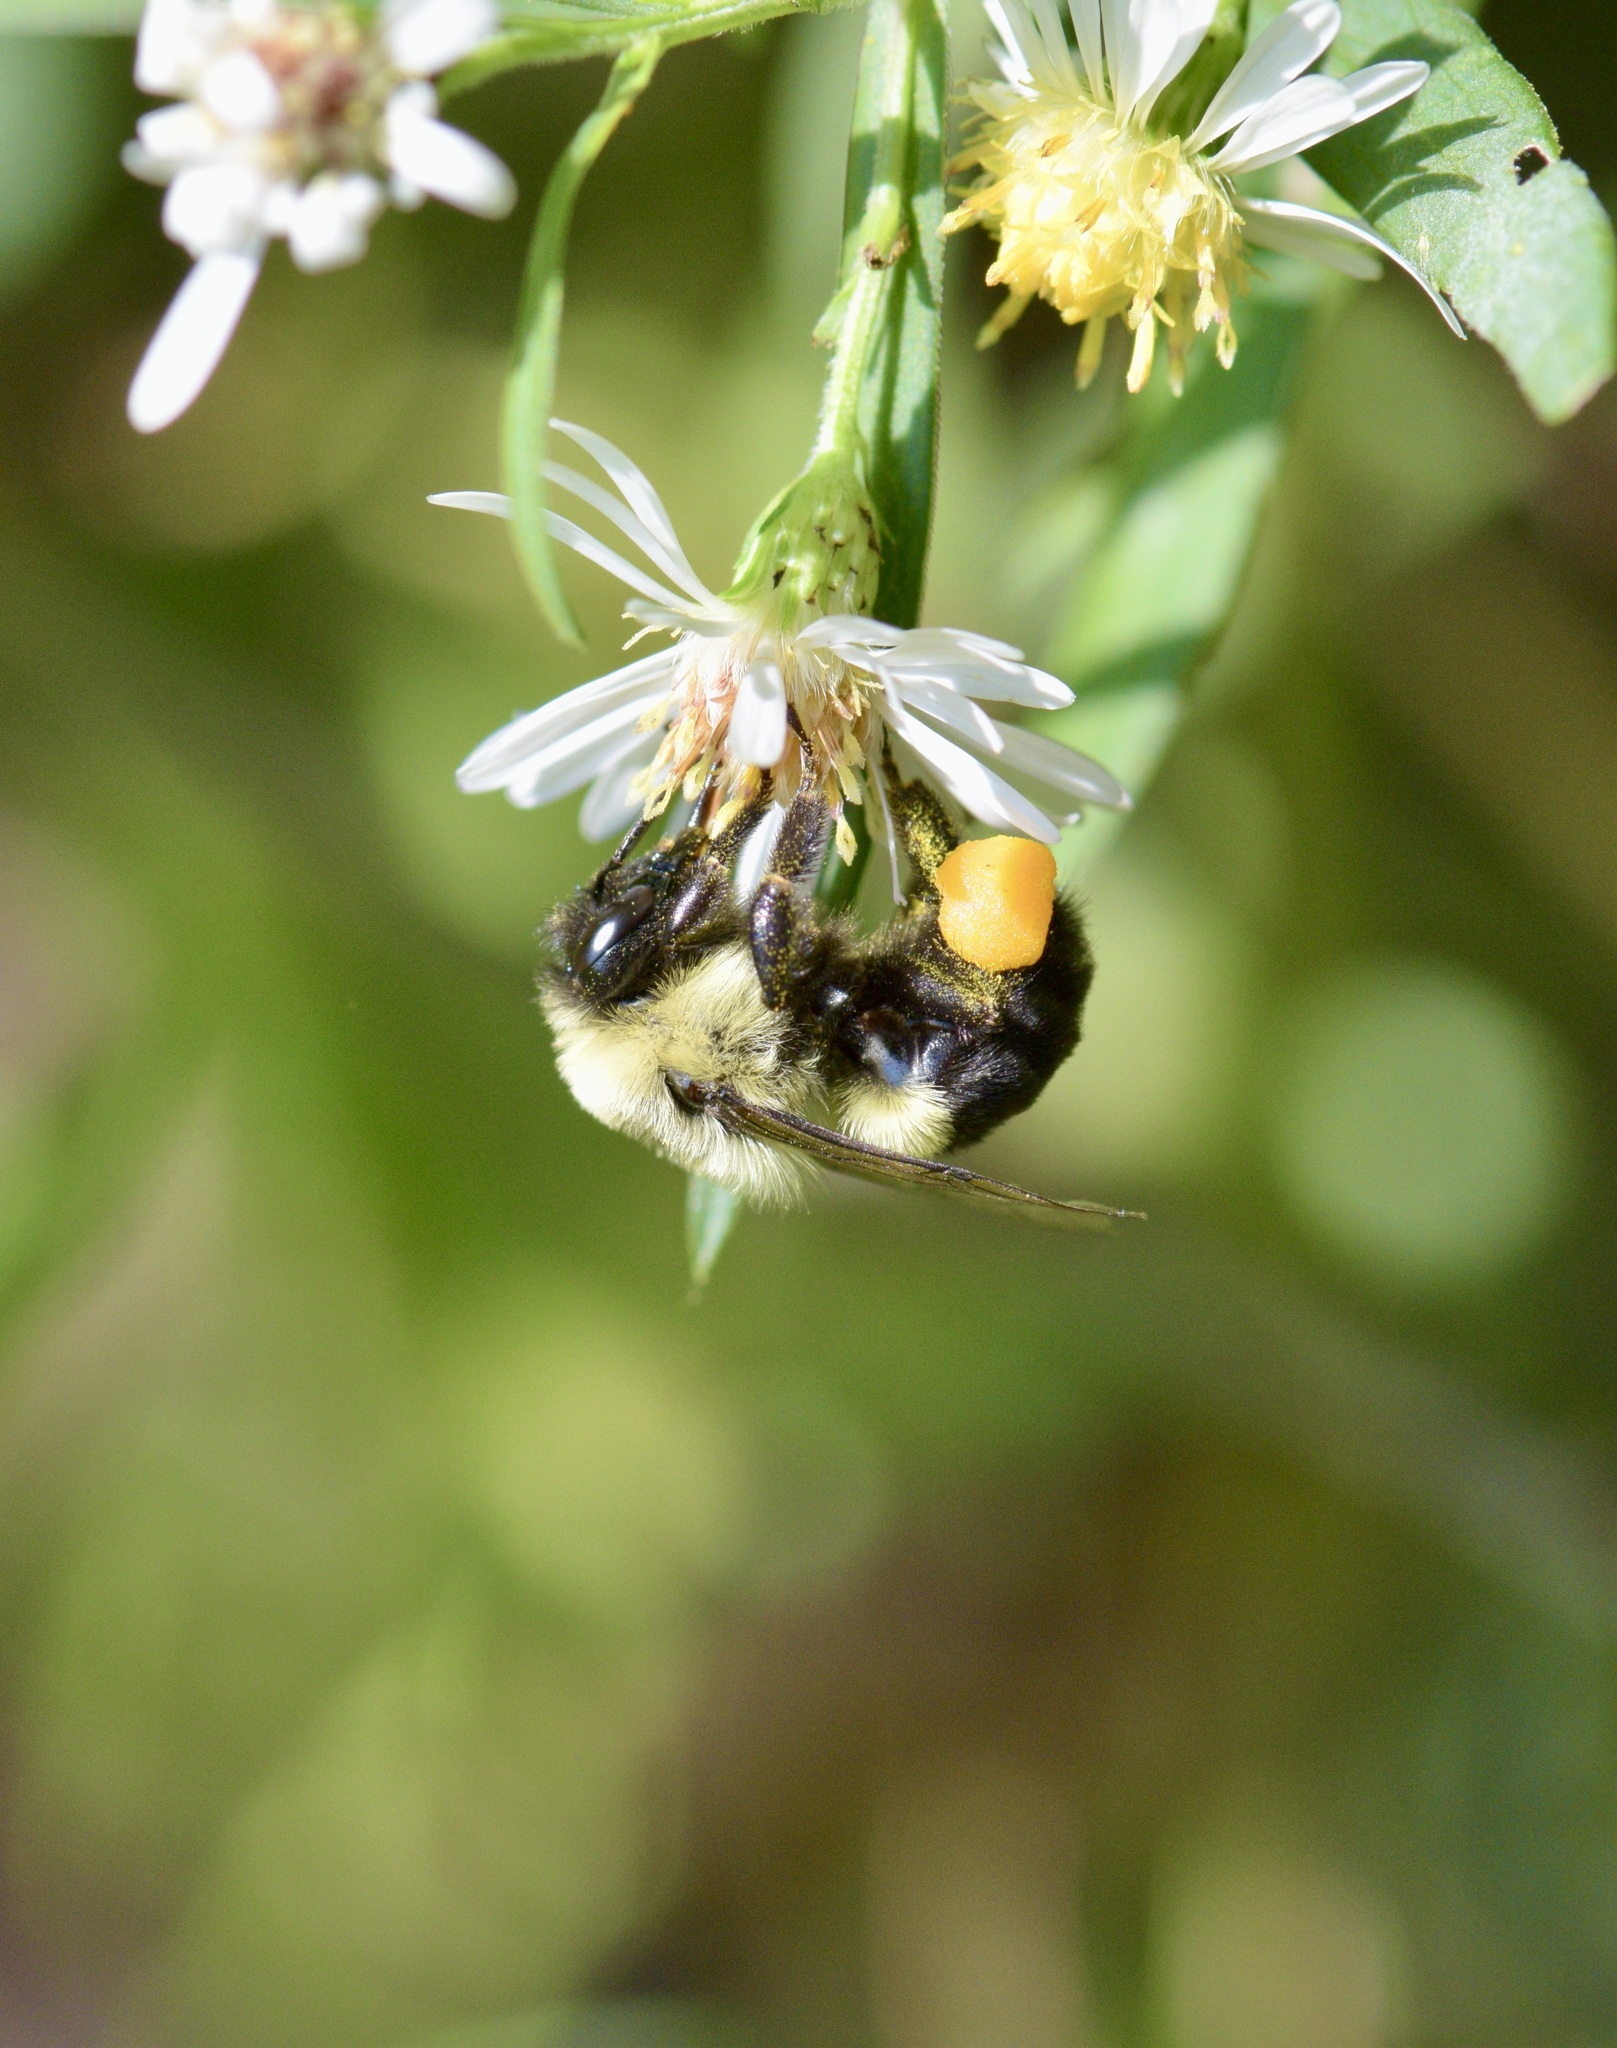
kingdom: Animalia
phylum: Arthropoda
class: Insecta
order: Hymenoptera
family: Apidae
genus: Bombus
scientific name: Bombus impatiens
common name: Common eastern bumble bee
